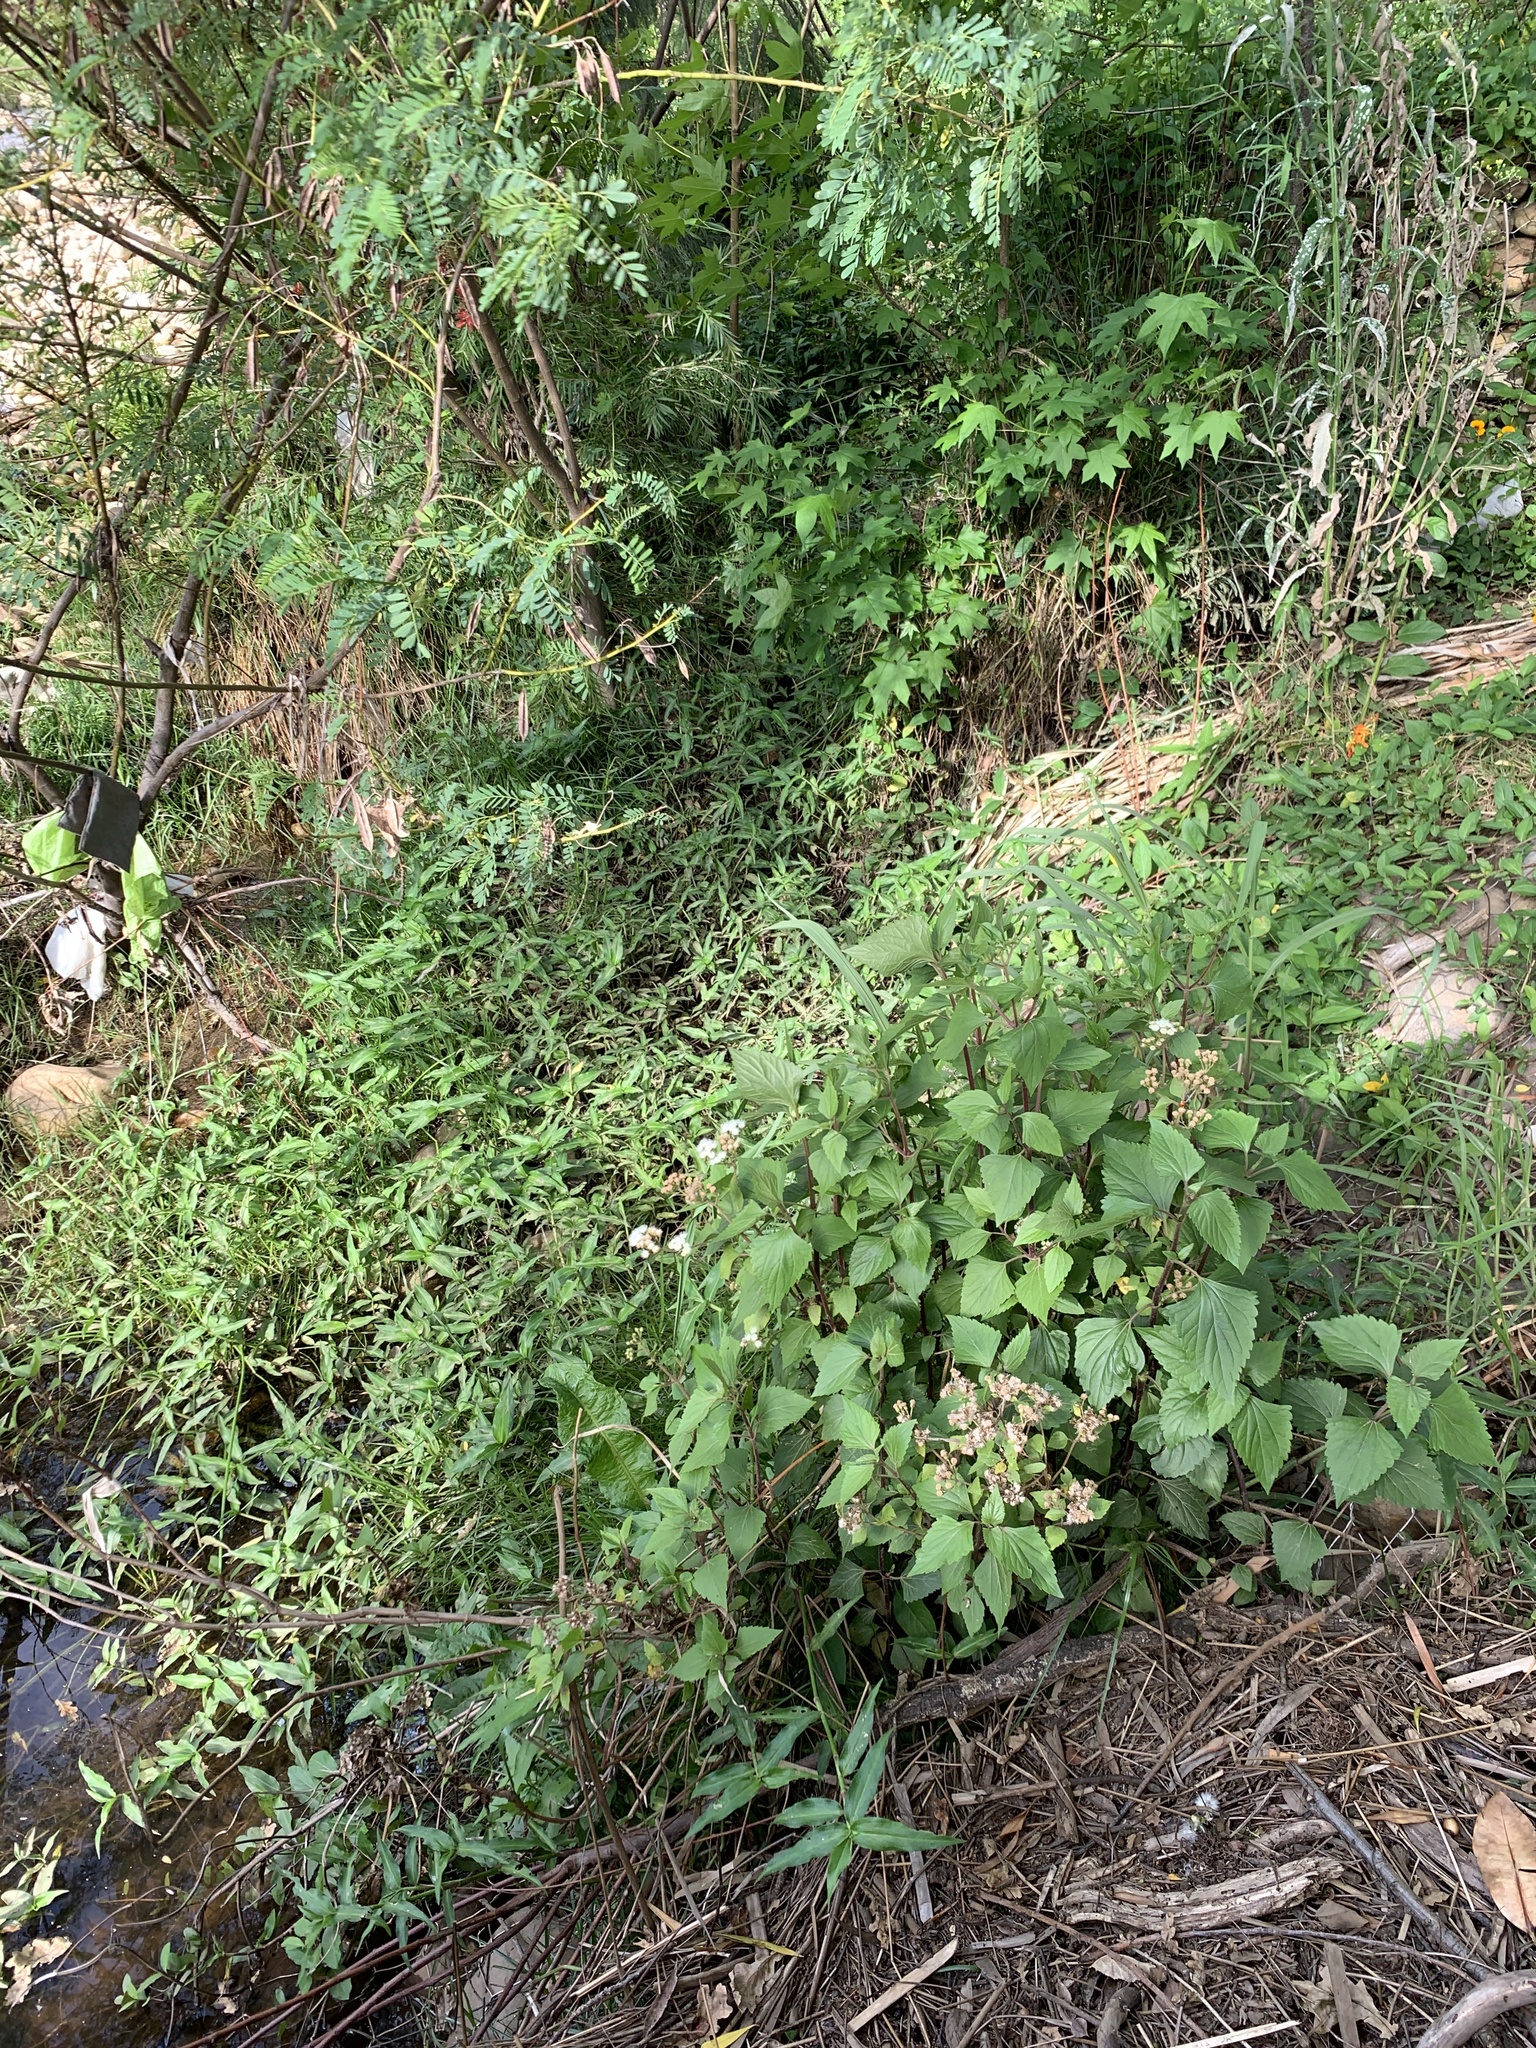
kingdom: Plantae
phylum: Tracheophyta
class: Magnoliopsida
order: Asterales
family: Asteraceae
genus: Ageratina
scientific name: Ageratina adenophora
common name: Sticky snakeroot
